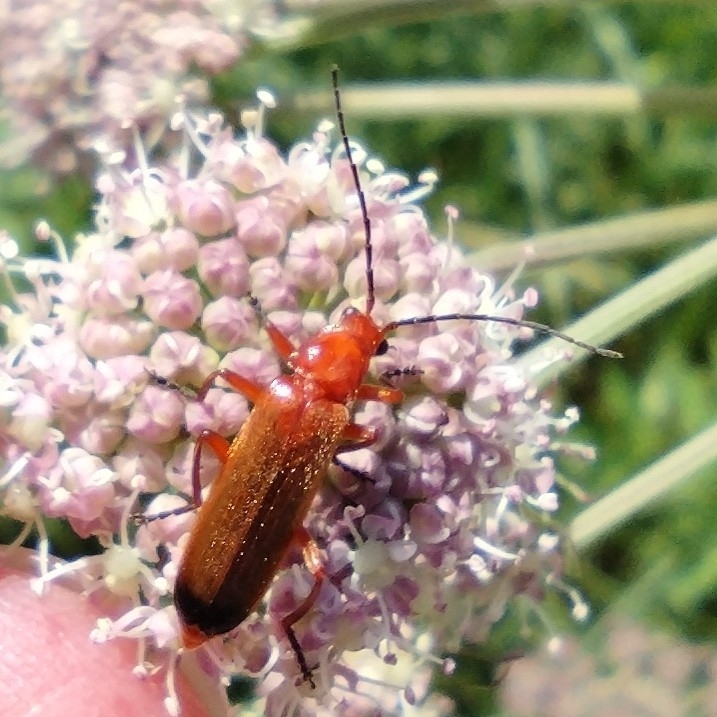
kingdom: Animalia
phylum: Arthropoda
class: Insecta
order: Coleoptera
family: Cantharidae
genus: Rhagonycha
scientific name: Rhagonycha fulva
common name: Common red soldier beetle
